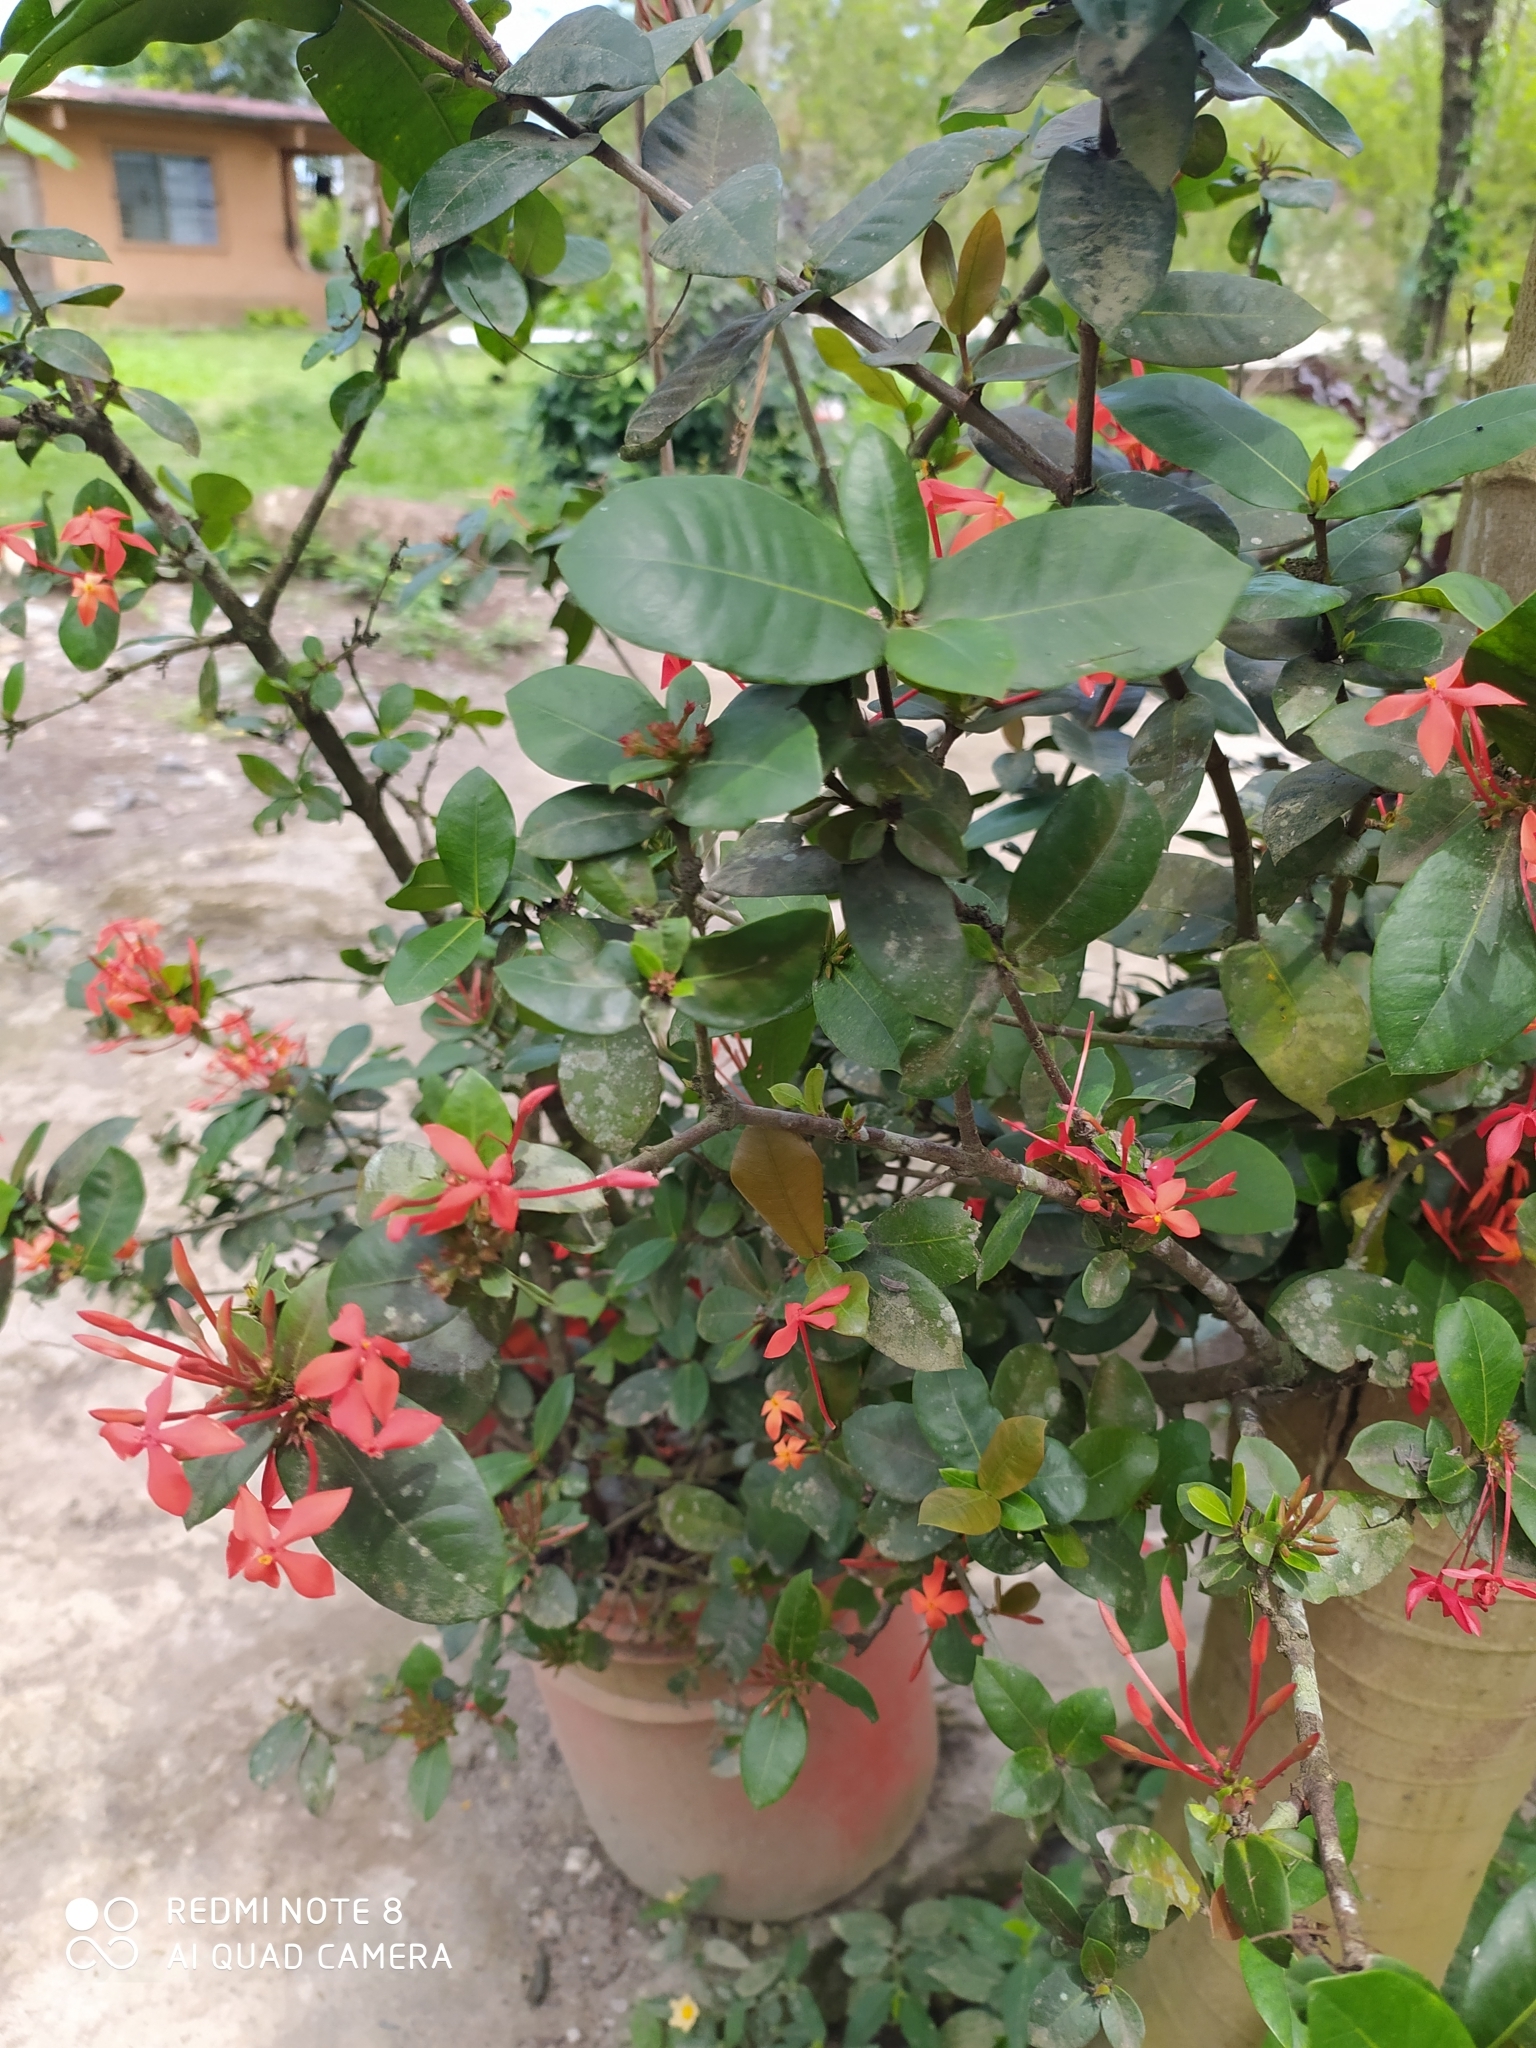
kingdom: Plantae
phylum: Tracheophyta
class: Magnoliopsida
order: Gentianales
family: Rubiaceae
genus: Ixora
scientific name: Ixora coccinea
